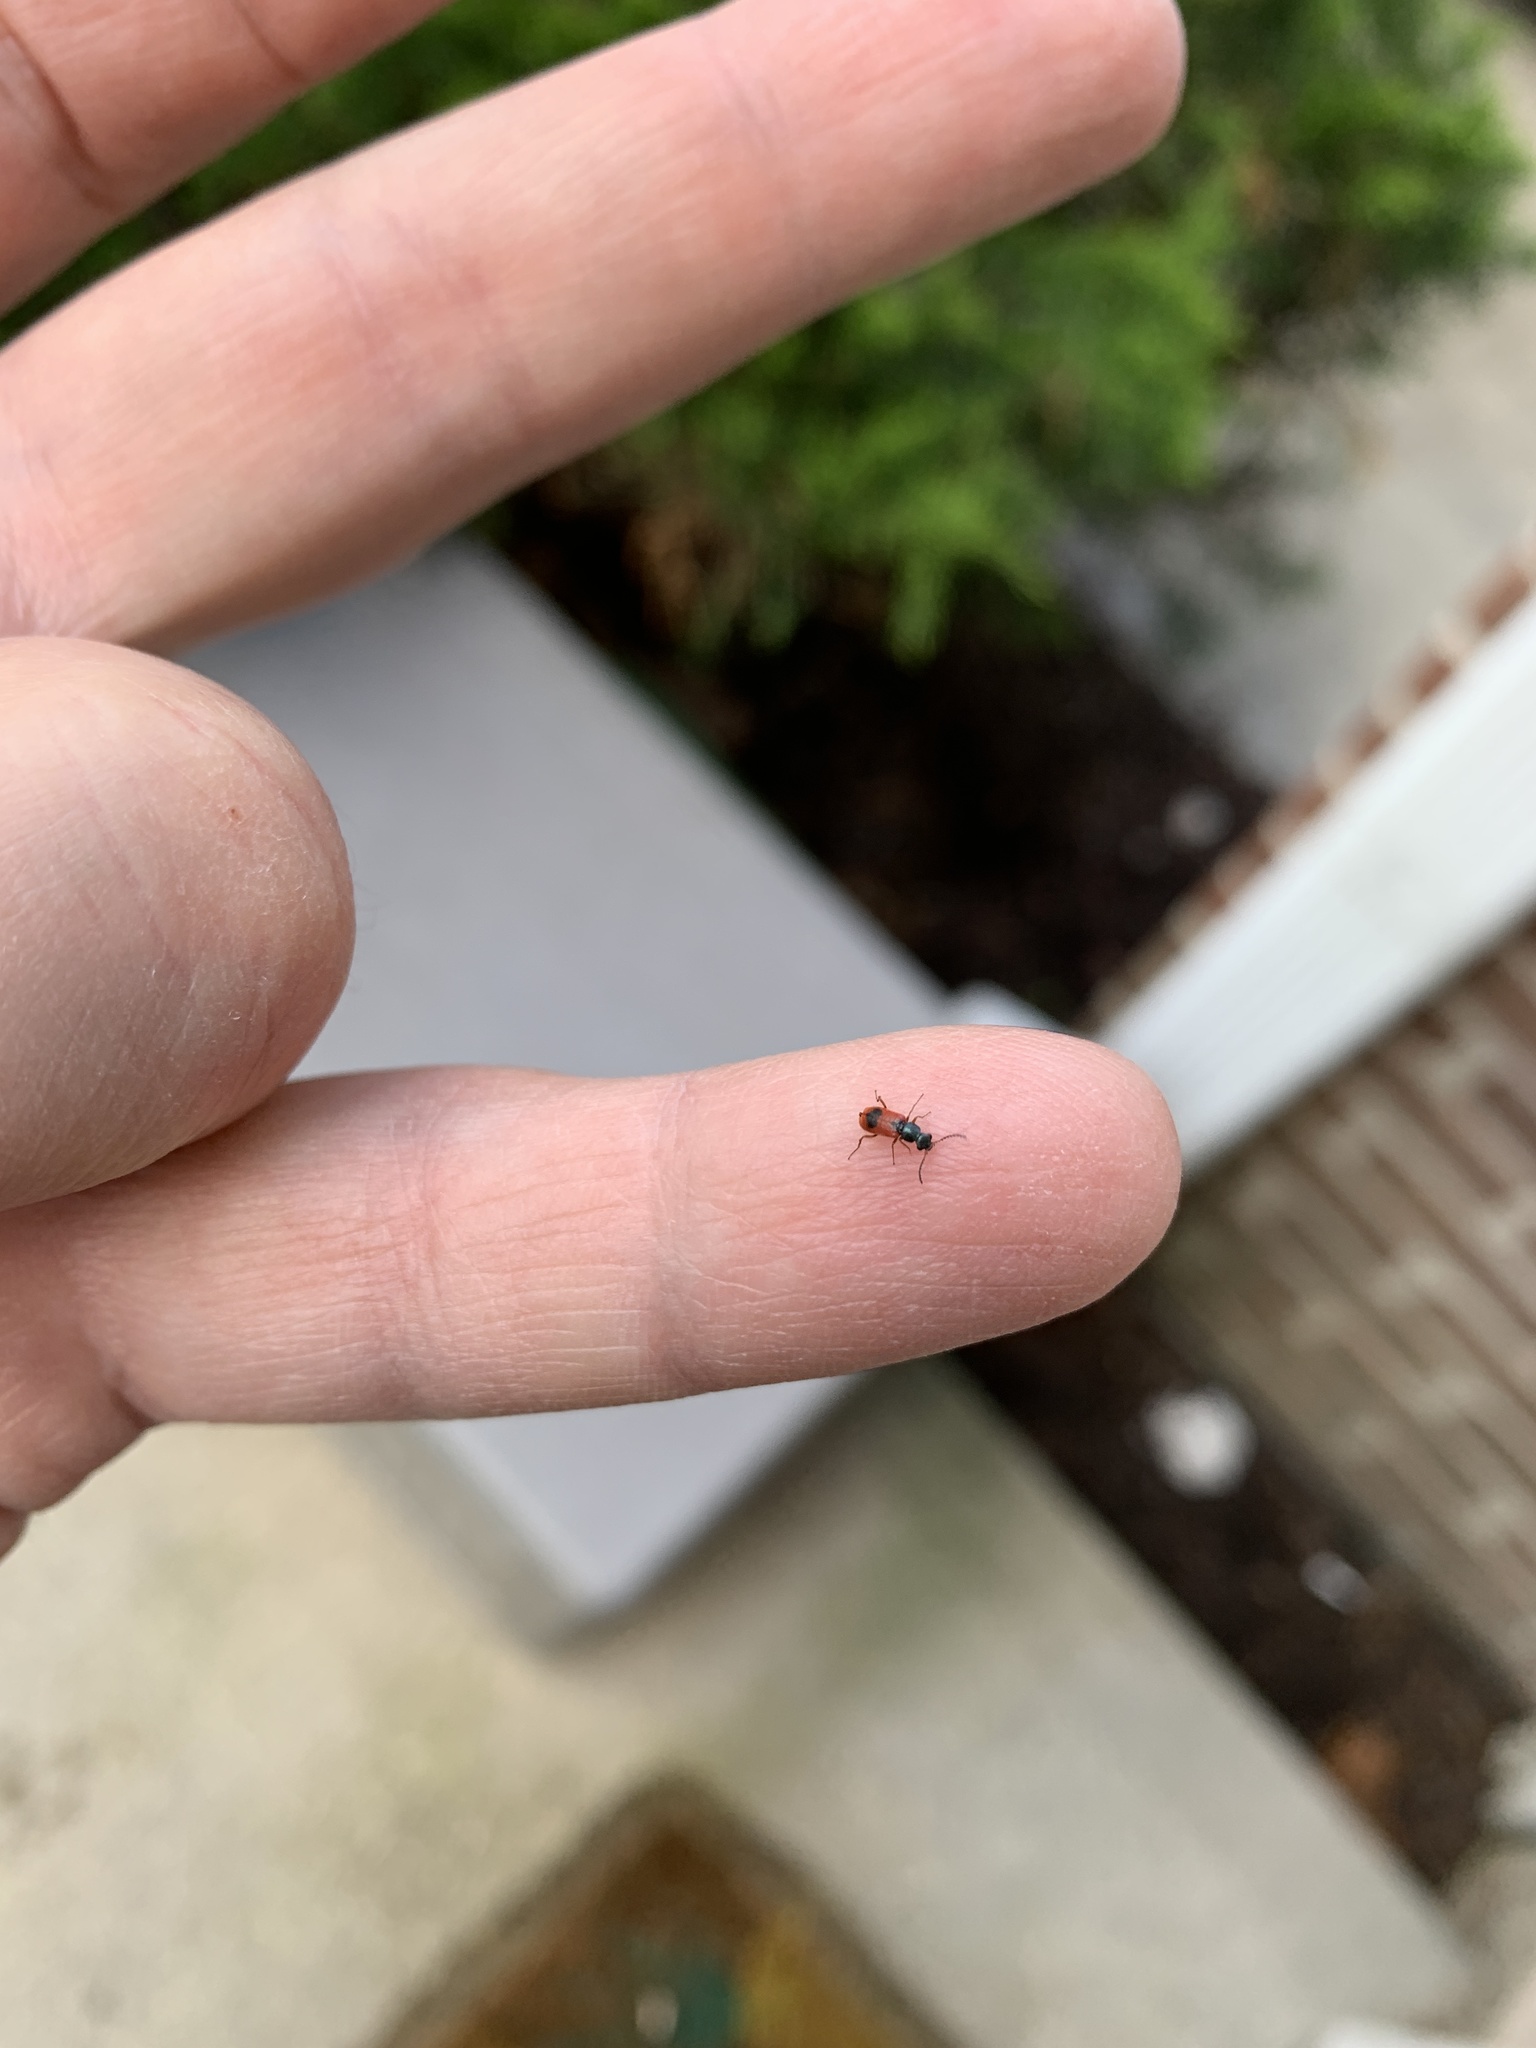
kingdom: Animalia
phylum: Arthropoda
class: Insecta
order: Coleoptera
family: Melyridae
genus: Anthocomus
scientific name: Anthocomus equestris
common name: Black-banded soft-winged flower beetle
